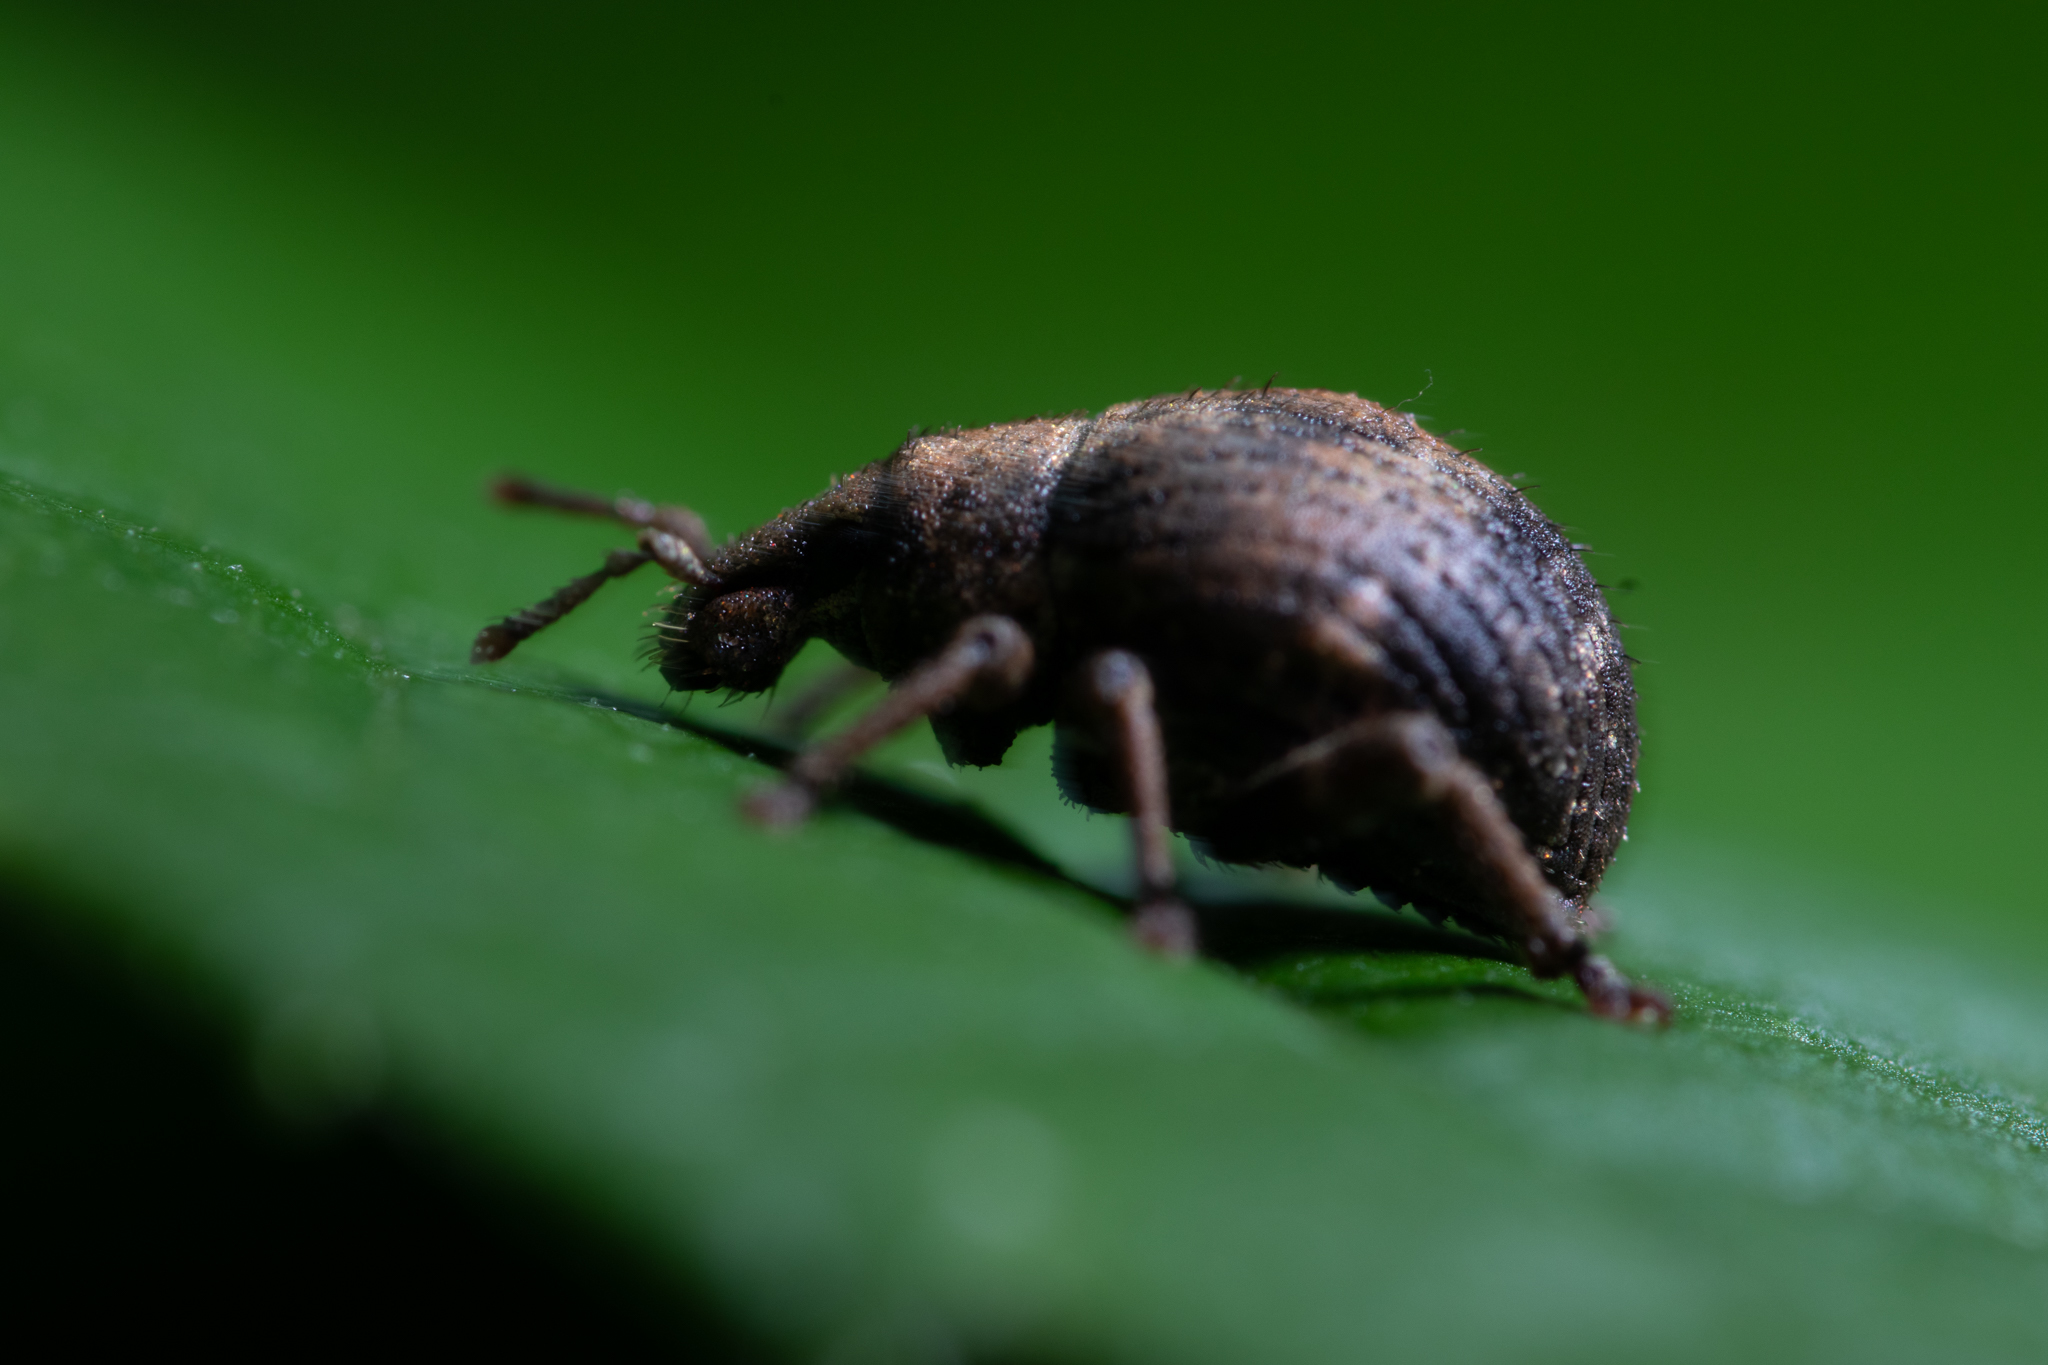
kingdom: Animalia
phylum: Arthropoda
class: Insecta
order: Coleoptera
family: Curculionidae
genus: Pseudocneorhinus
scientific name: Pseudocneorhinus bifasciatus
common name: Two-banded japanese weevil
